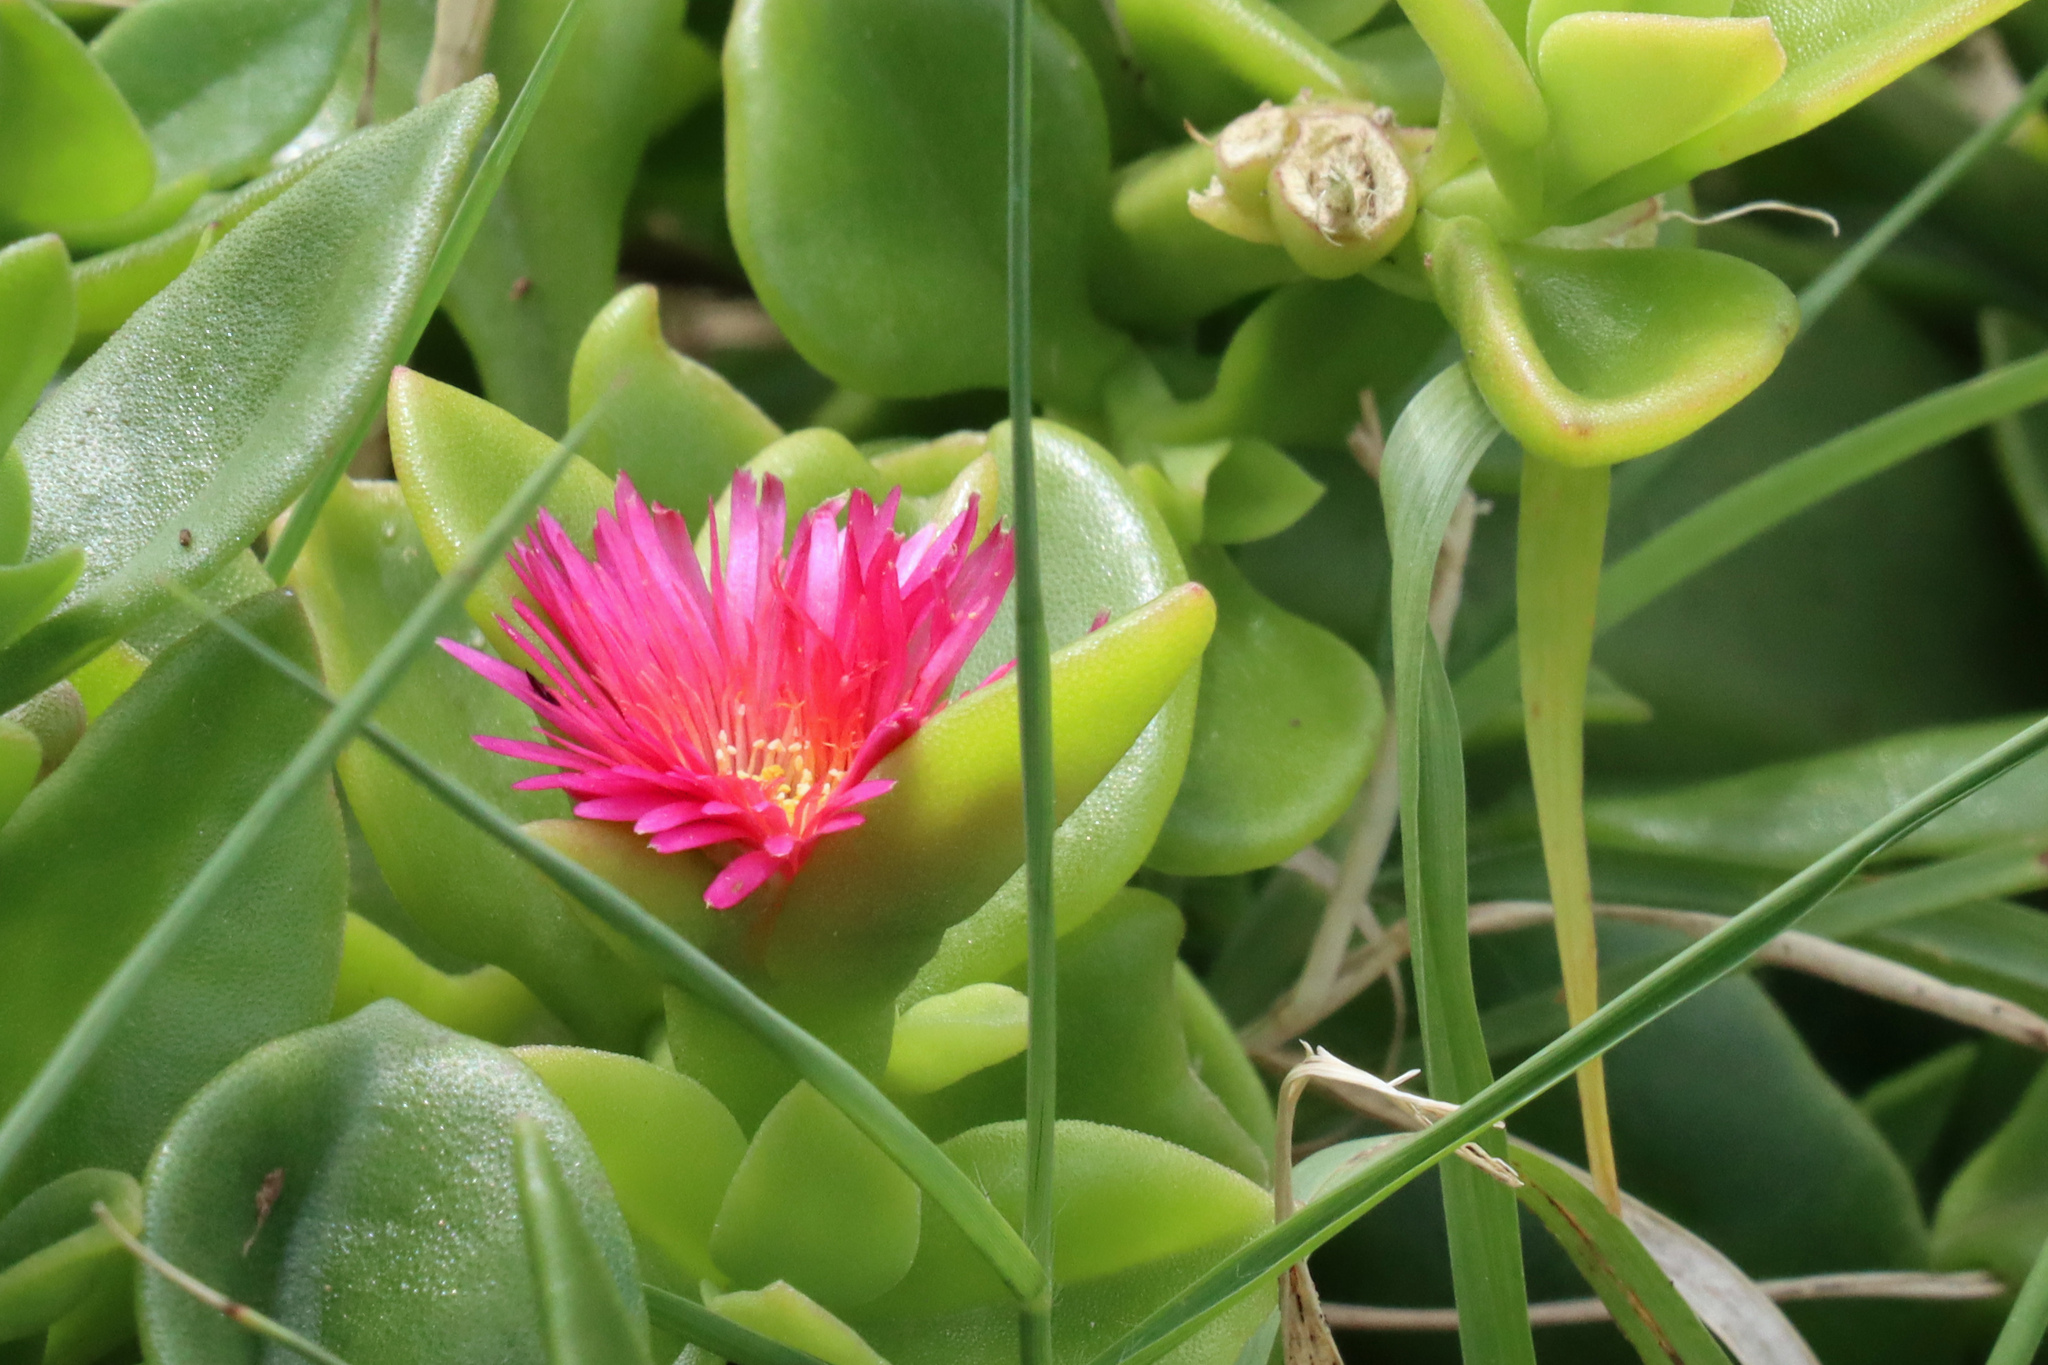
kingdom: Plantae
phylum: Tracheophyta
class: Magnoliopsida
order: Caryophyllales
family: Aizoaceae
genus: Mesembryanthemum
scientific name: Mesembryanthemum vascosilvae
